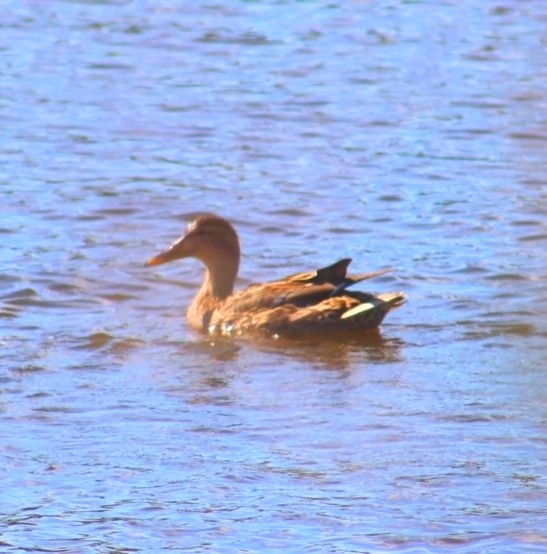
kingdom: Animalia
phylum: Chordata
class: Aves
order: Anseriformes
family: Anatidae
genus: Anas
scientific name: Anas platyrhynchos
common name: Mallard
